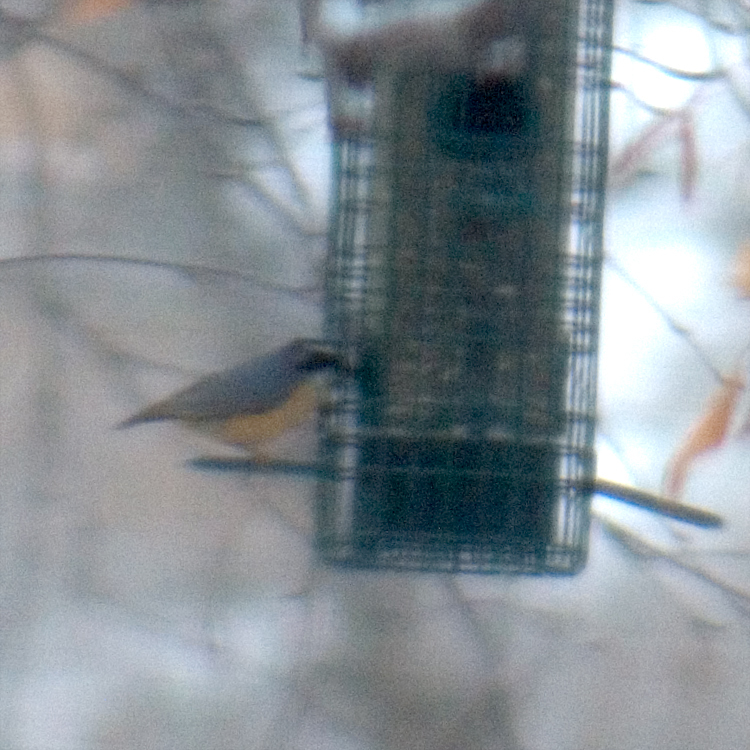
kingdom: Animalia
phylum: Chordata
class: Aves
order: Passeriformes
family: Sittidae
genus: Sitta
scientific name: Sitta canadensis
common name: Red-breasted nuthatch
